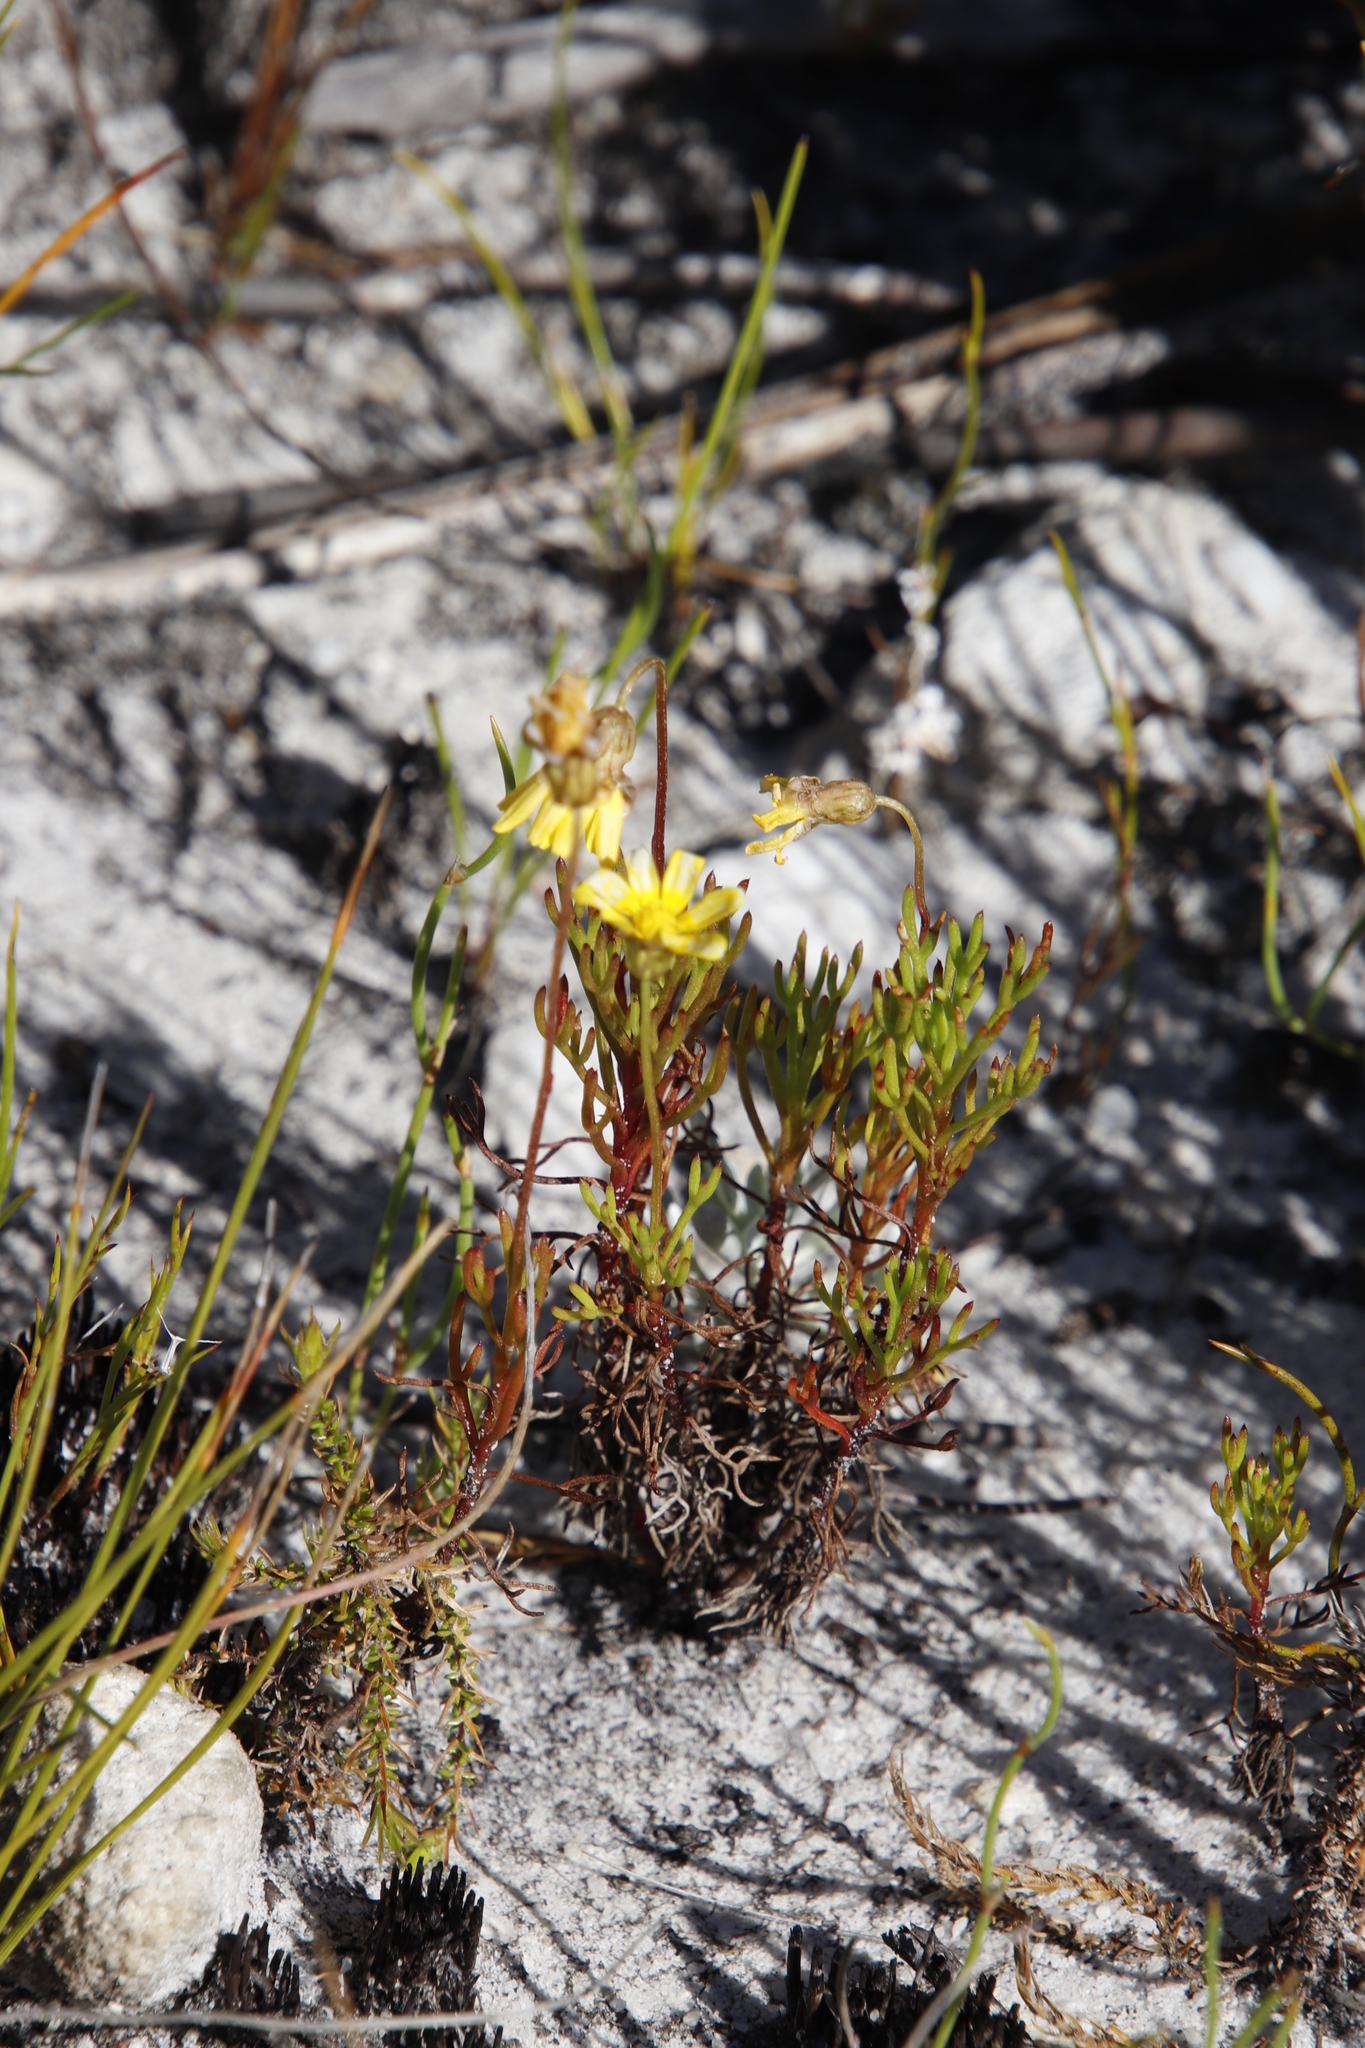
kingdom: Plantae
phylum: Tracheophyta
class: Magnoliopsida
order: Asterales
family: Asteraceae
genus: Euryops
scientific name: Euryops abrotanifolius
